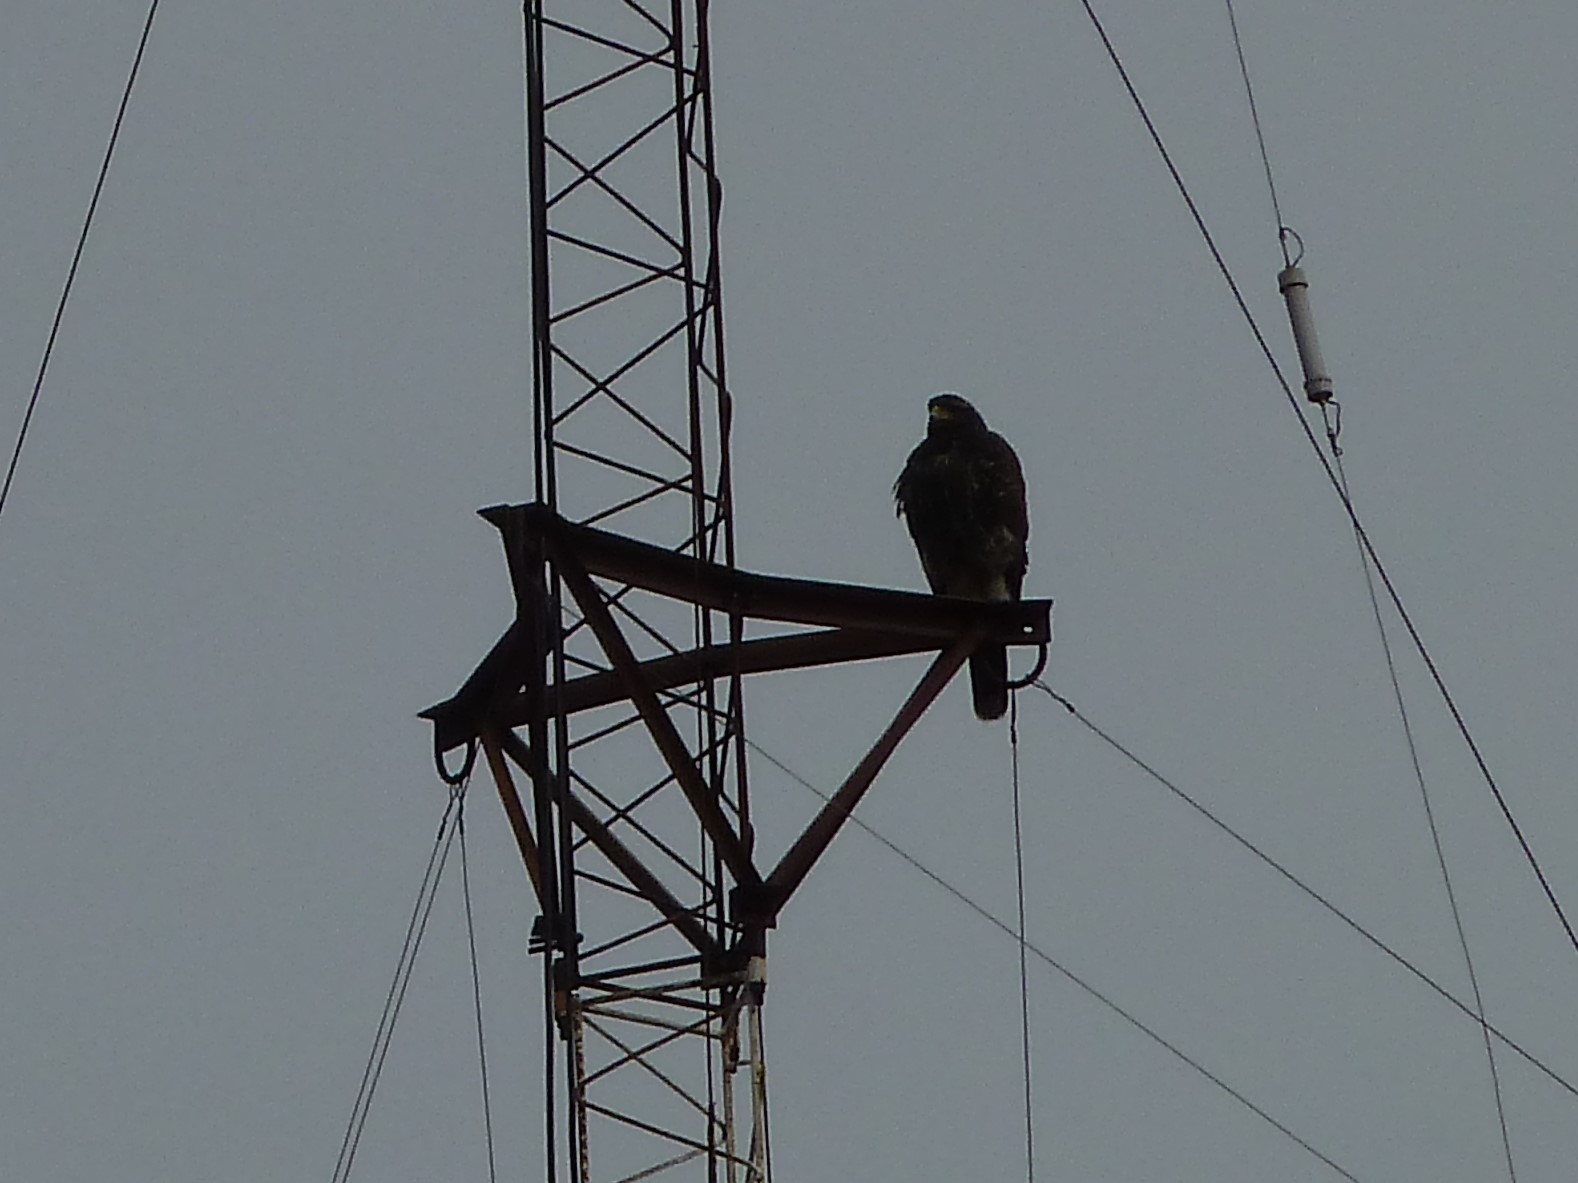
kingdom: Animalia
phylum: Chordata
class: Aves
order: Accipitriformes
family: Accipitridae
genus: Parabuteo
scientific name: Parabuteo unicinctus
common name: Harris's hawk
